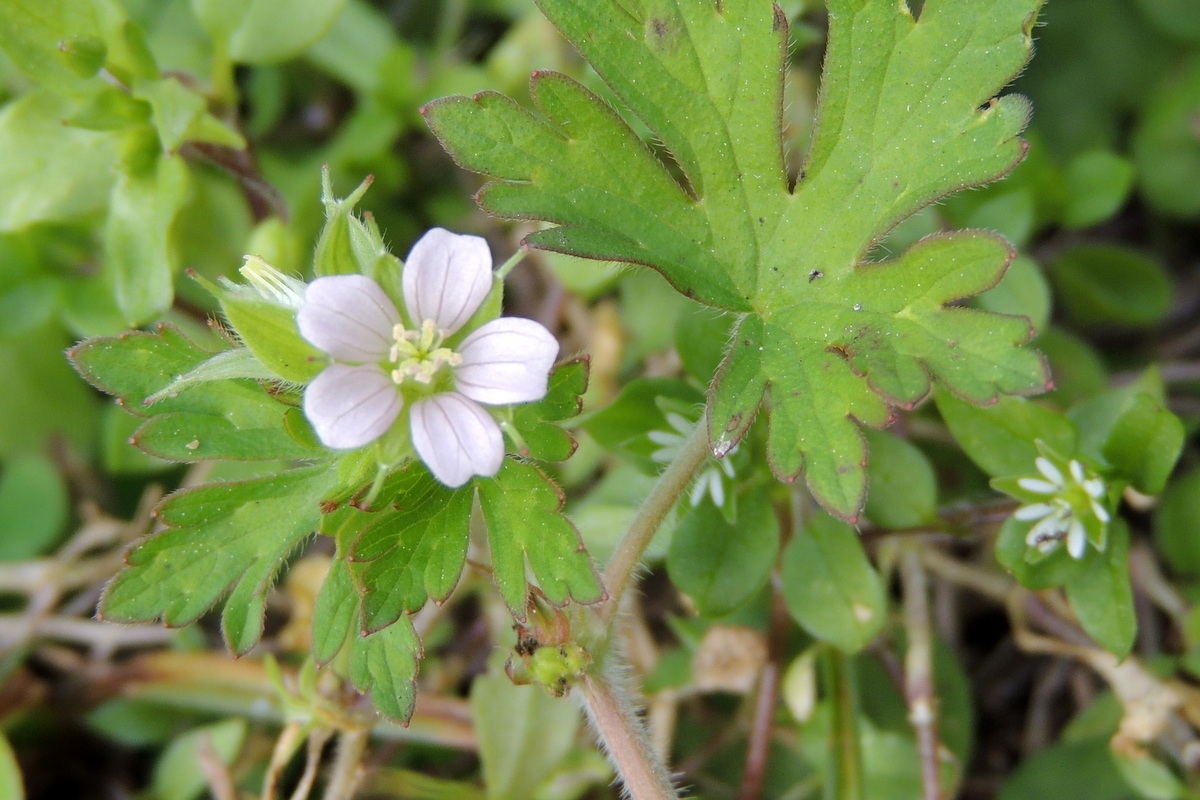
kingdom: Plantae
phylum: Tracheophyta
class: Magnoliopsida
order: Geraniales
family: Geraniaceae
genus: Geranium
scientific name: Geranium carolinianum
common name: Carolina crane's-bill
